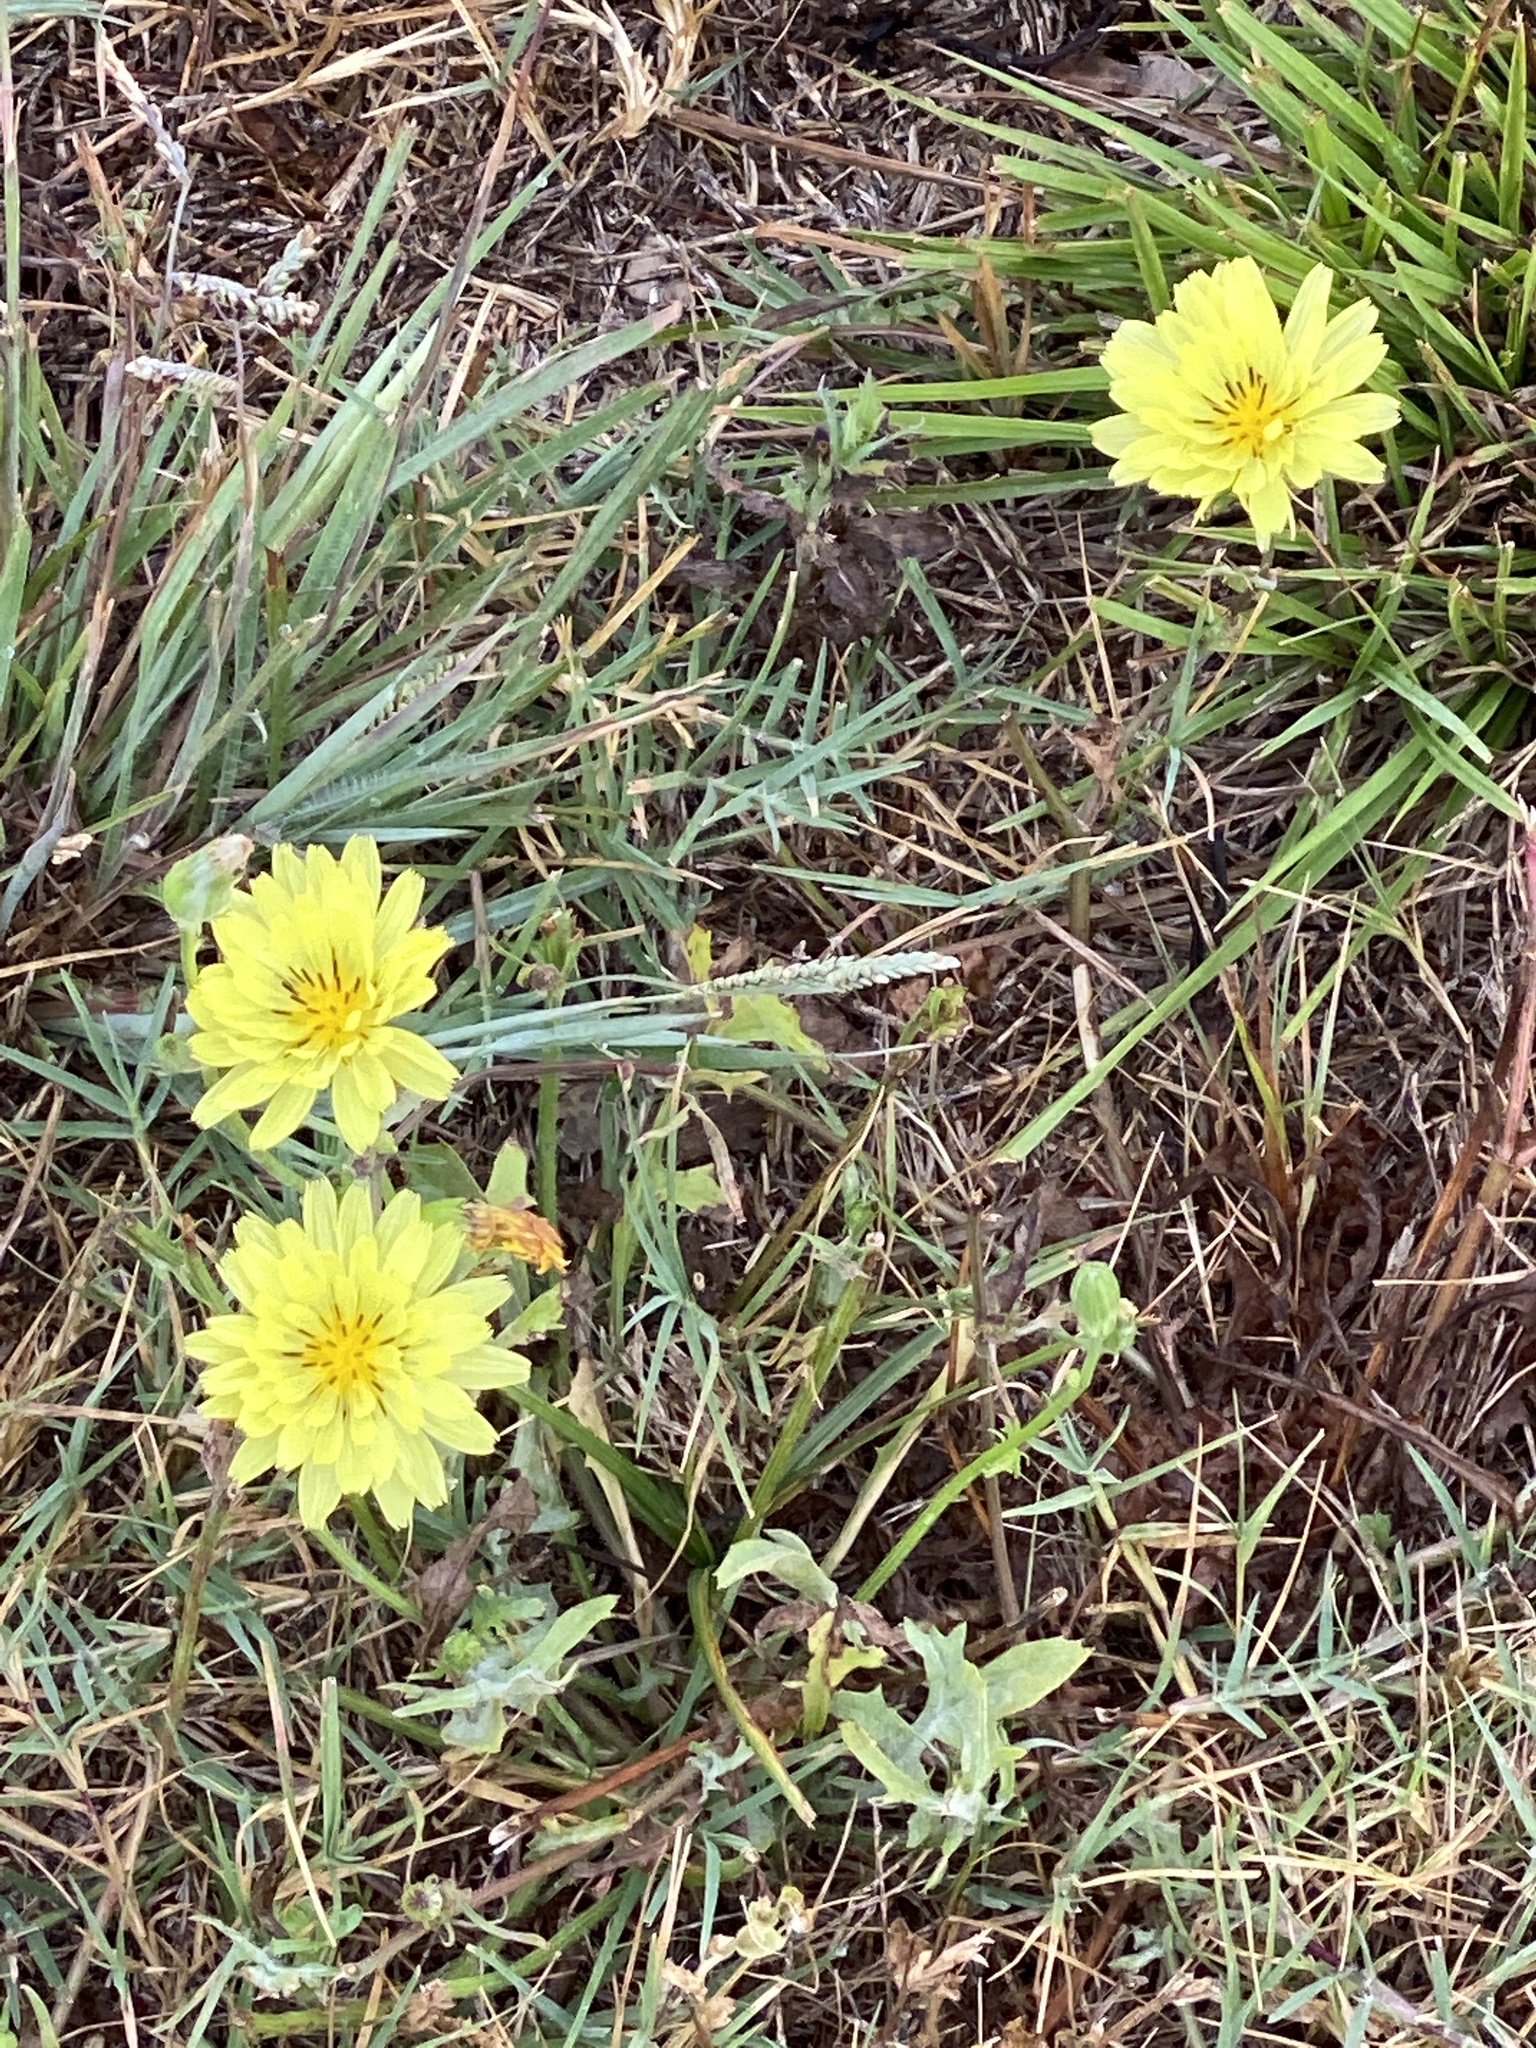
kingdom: Plantae
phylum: Tracheophyta
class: Magnoliopsida
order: Asterales
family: Asteraceae
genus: Pyrrhopappus
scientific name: Pyrrhopappus pauciflorus
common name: Texas false dandelion
